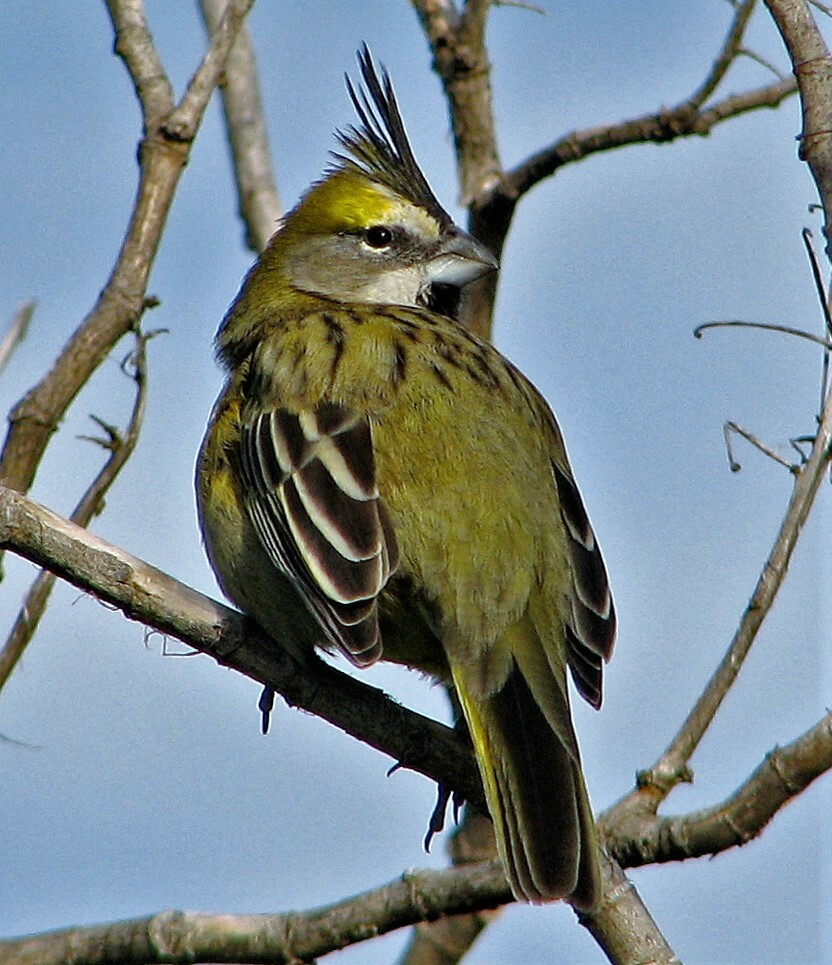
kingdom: Animalia
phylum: Chordata
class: Aves
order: Passeriformes
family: Thraupidae
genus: Gubernatrix
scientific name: Gubernatrix cristata
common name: Yellow cardinal
